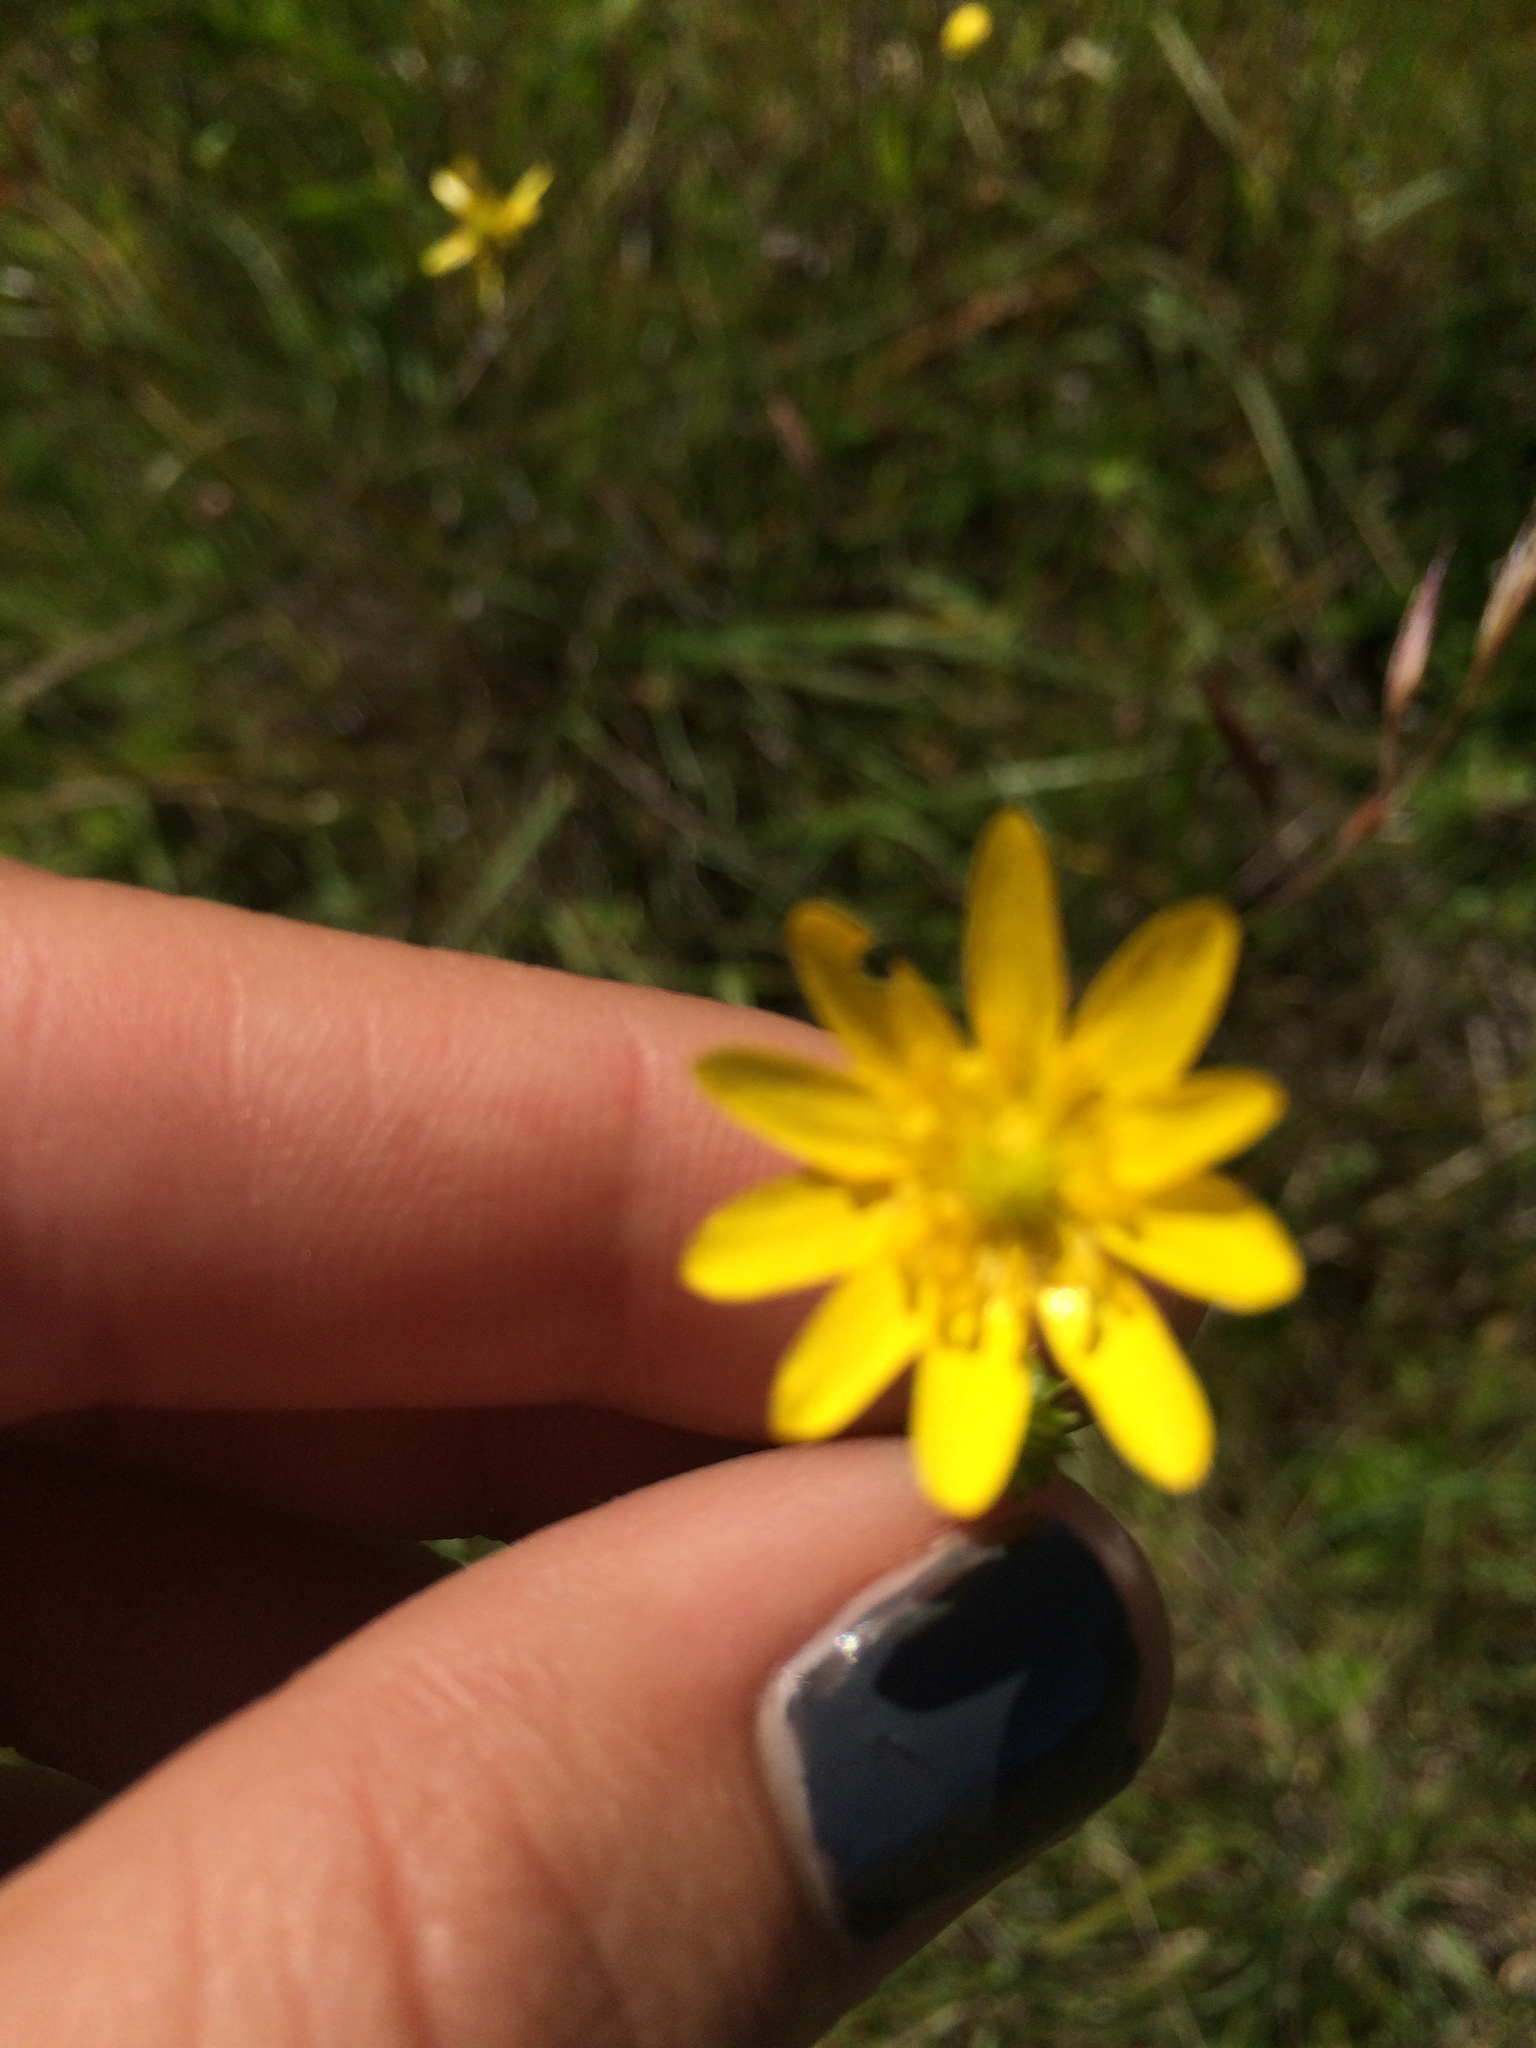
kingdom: Plantae
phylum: Tracheophyta
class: Magnoliopsida
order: Ranunculales
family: Ranunculaceae
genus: Ranunculus
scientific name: Ranunculus californicus
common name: California buttercup
